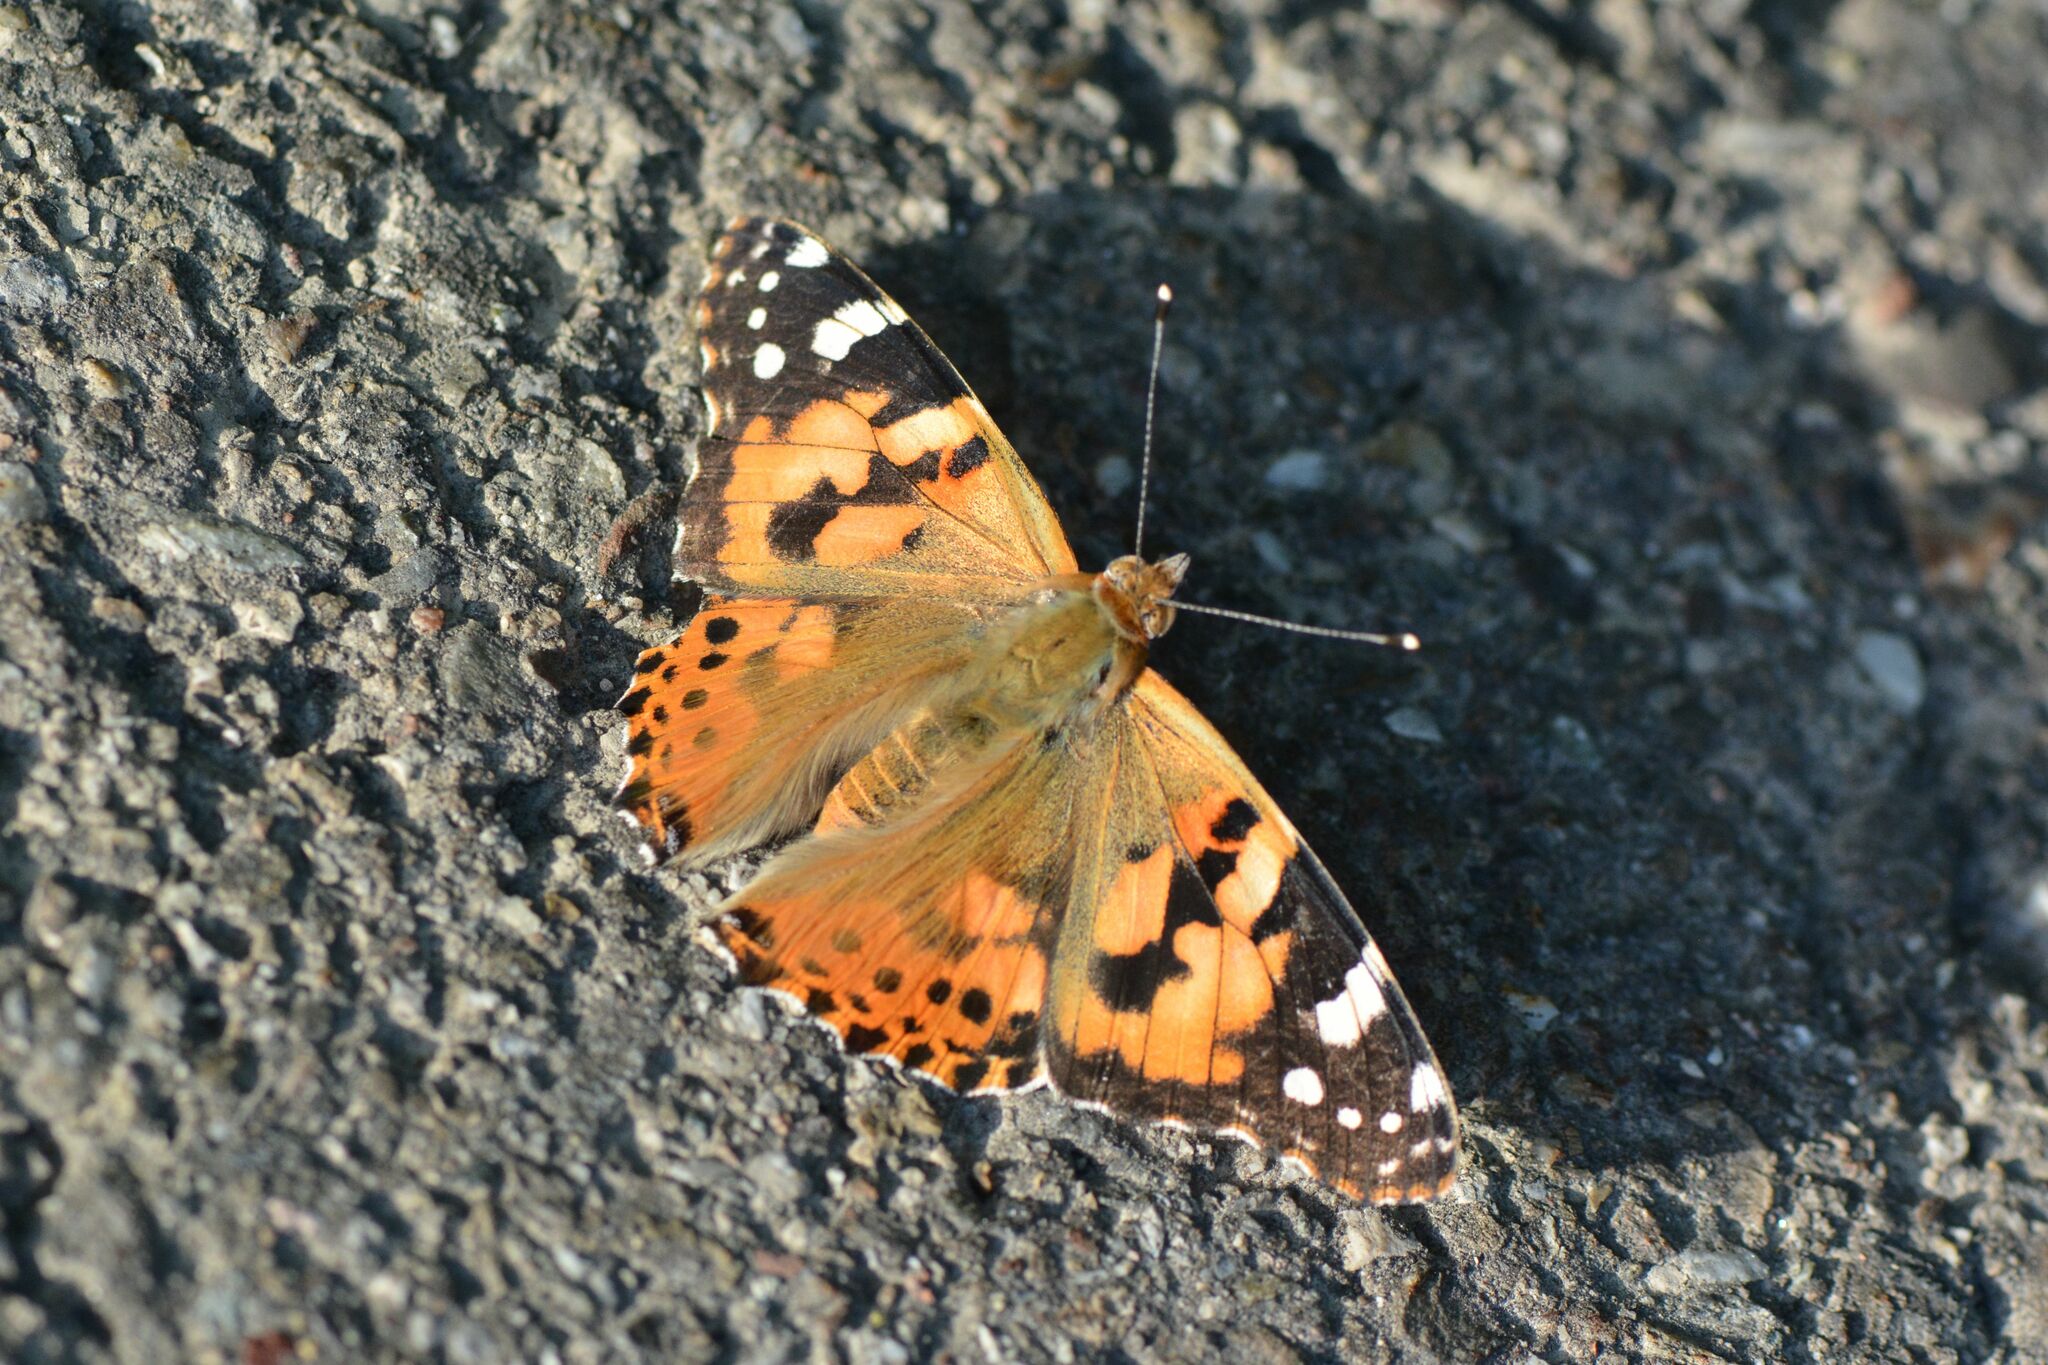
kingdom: Animalia
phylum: Arthropoda
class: Insecta
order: Lepidoptera
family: Nymphalidae
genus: Vanessa
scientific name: Vanessa cardui
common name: Painted lady
